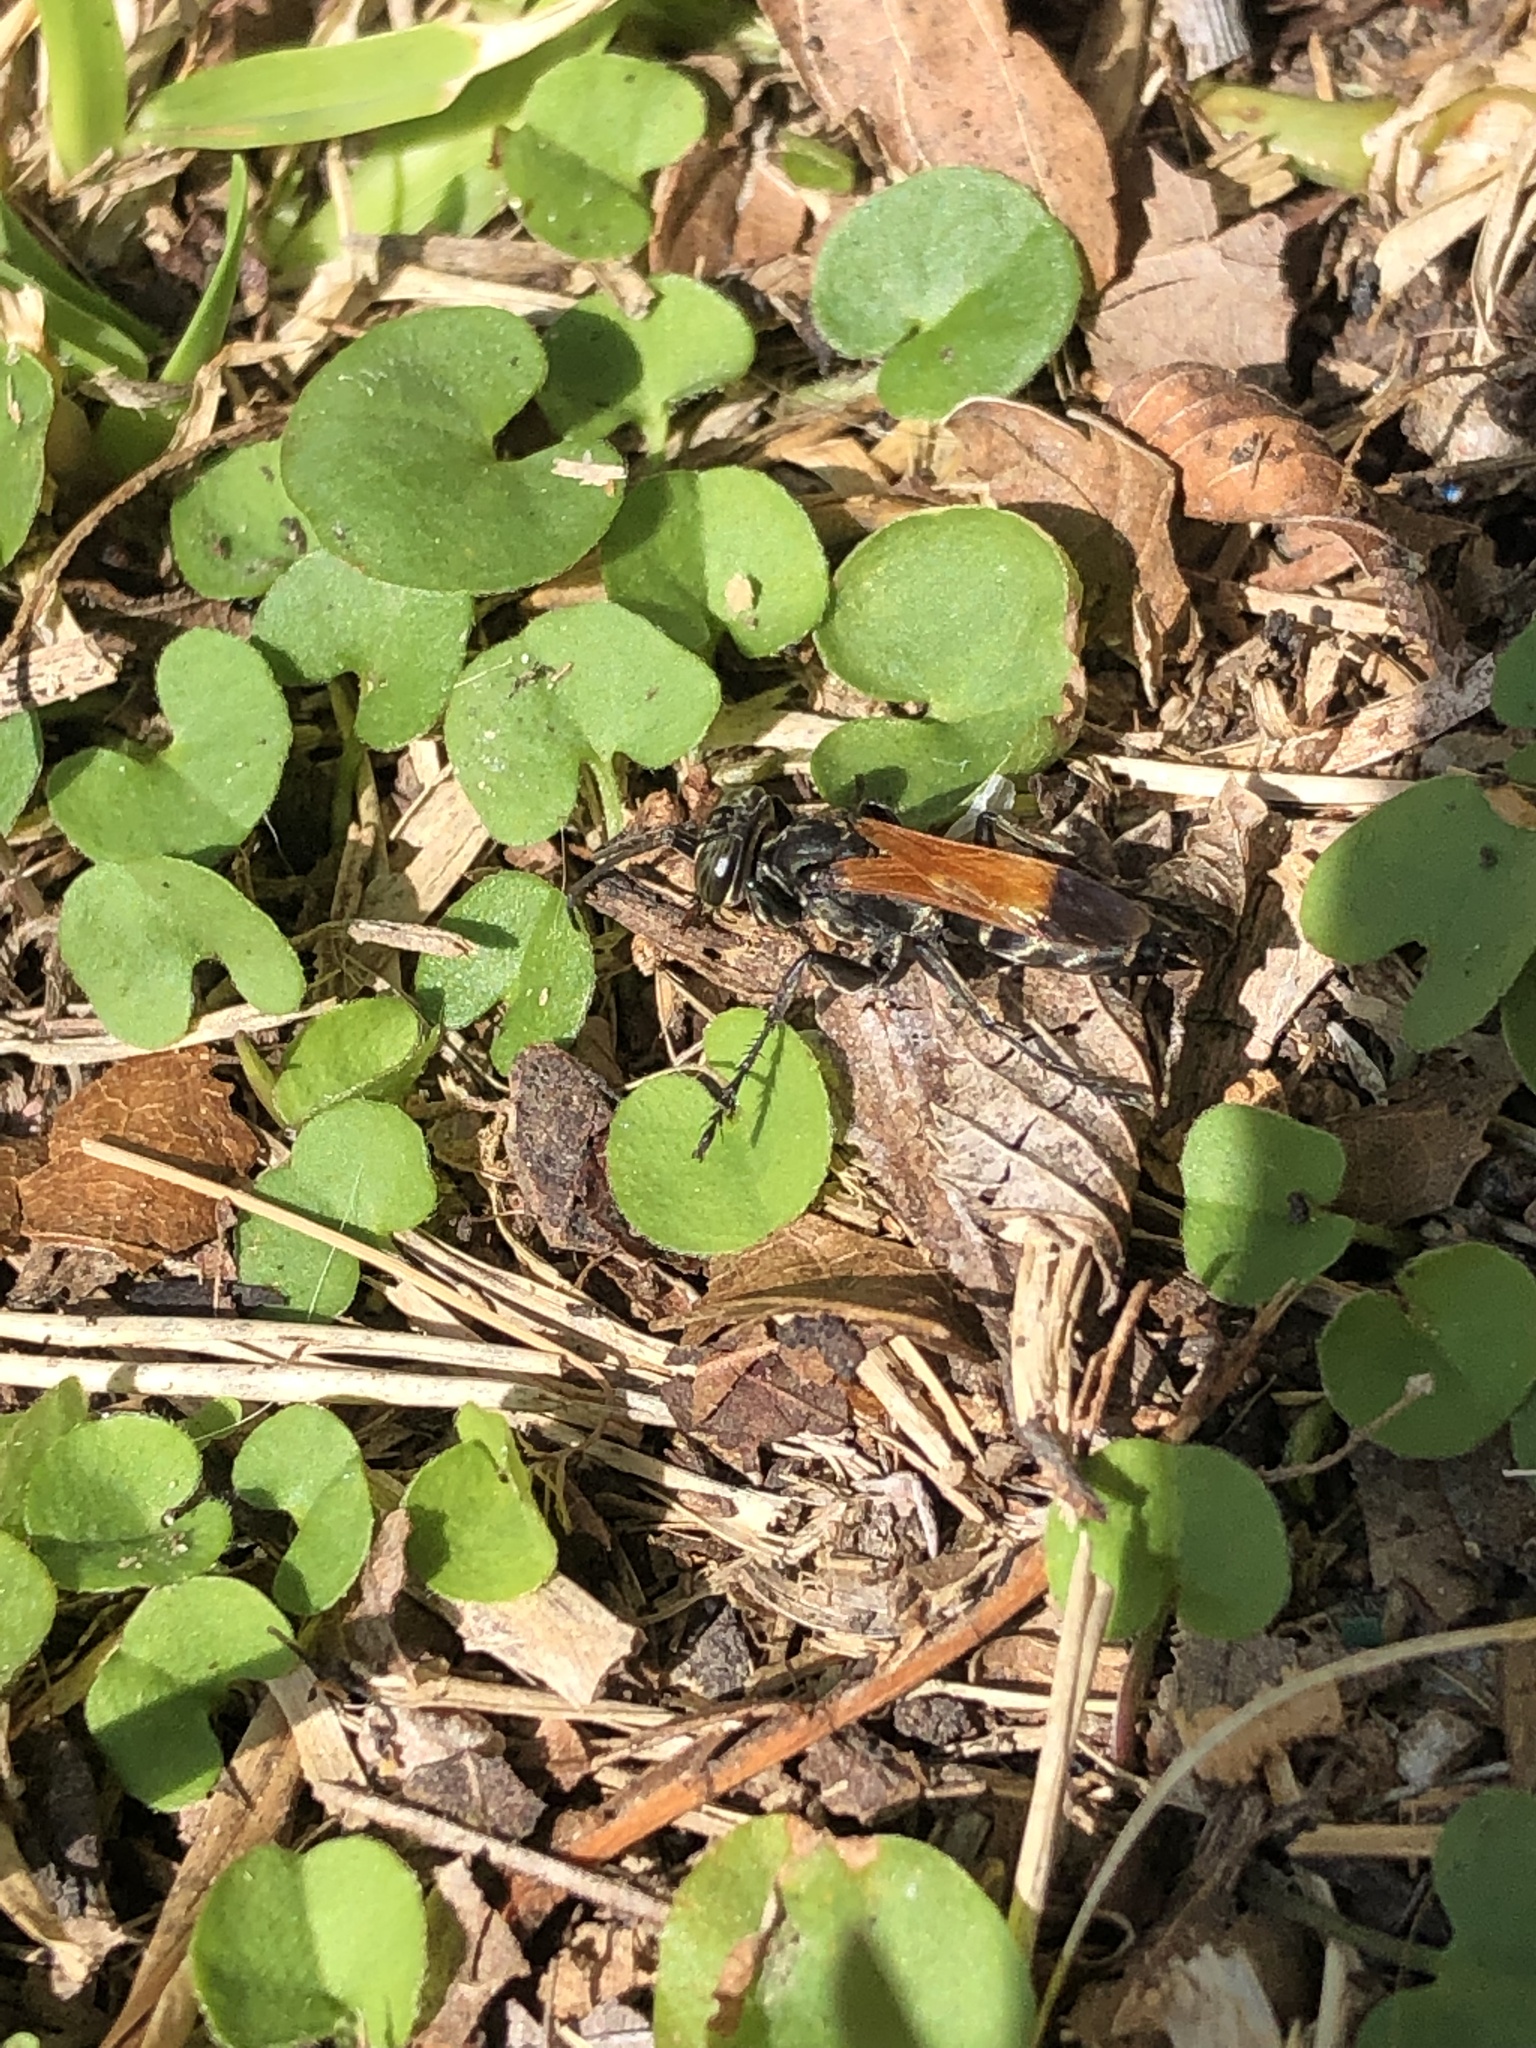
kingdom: Animalia
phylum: Arthropoda
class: Insecta
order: Hymenoptera
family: Crabronidae
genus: Liris
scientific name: Liris partitus
